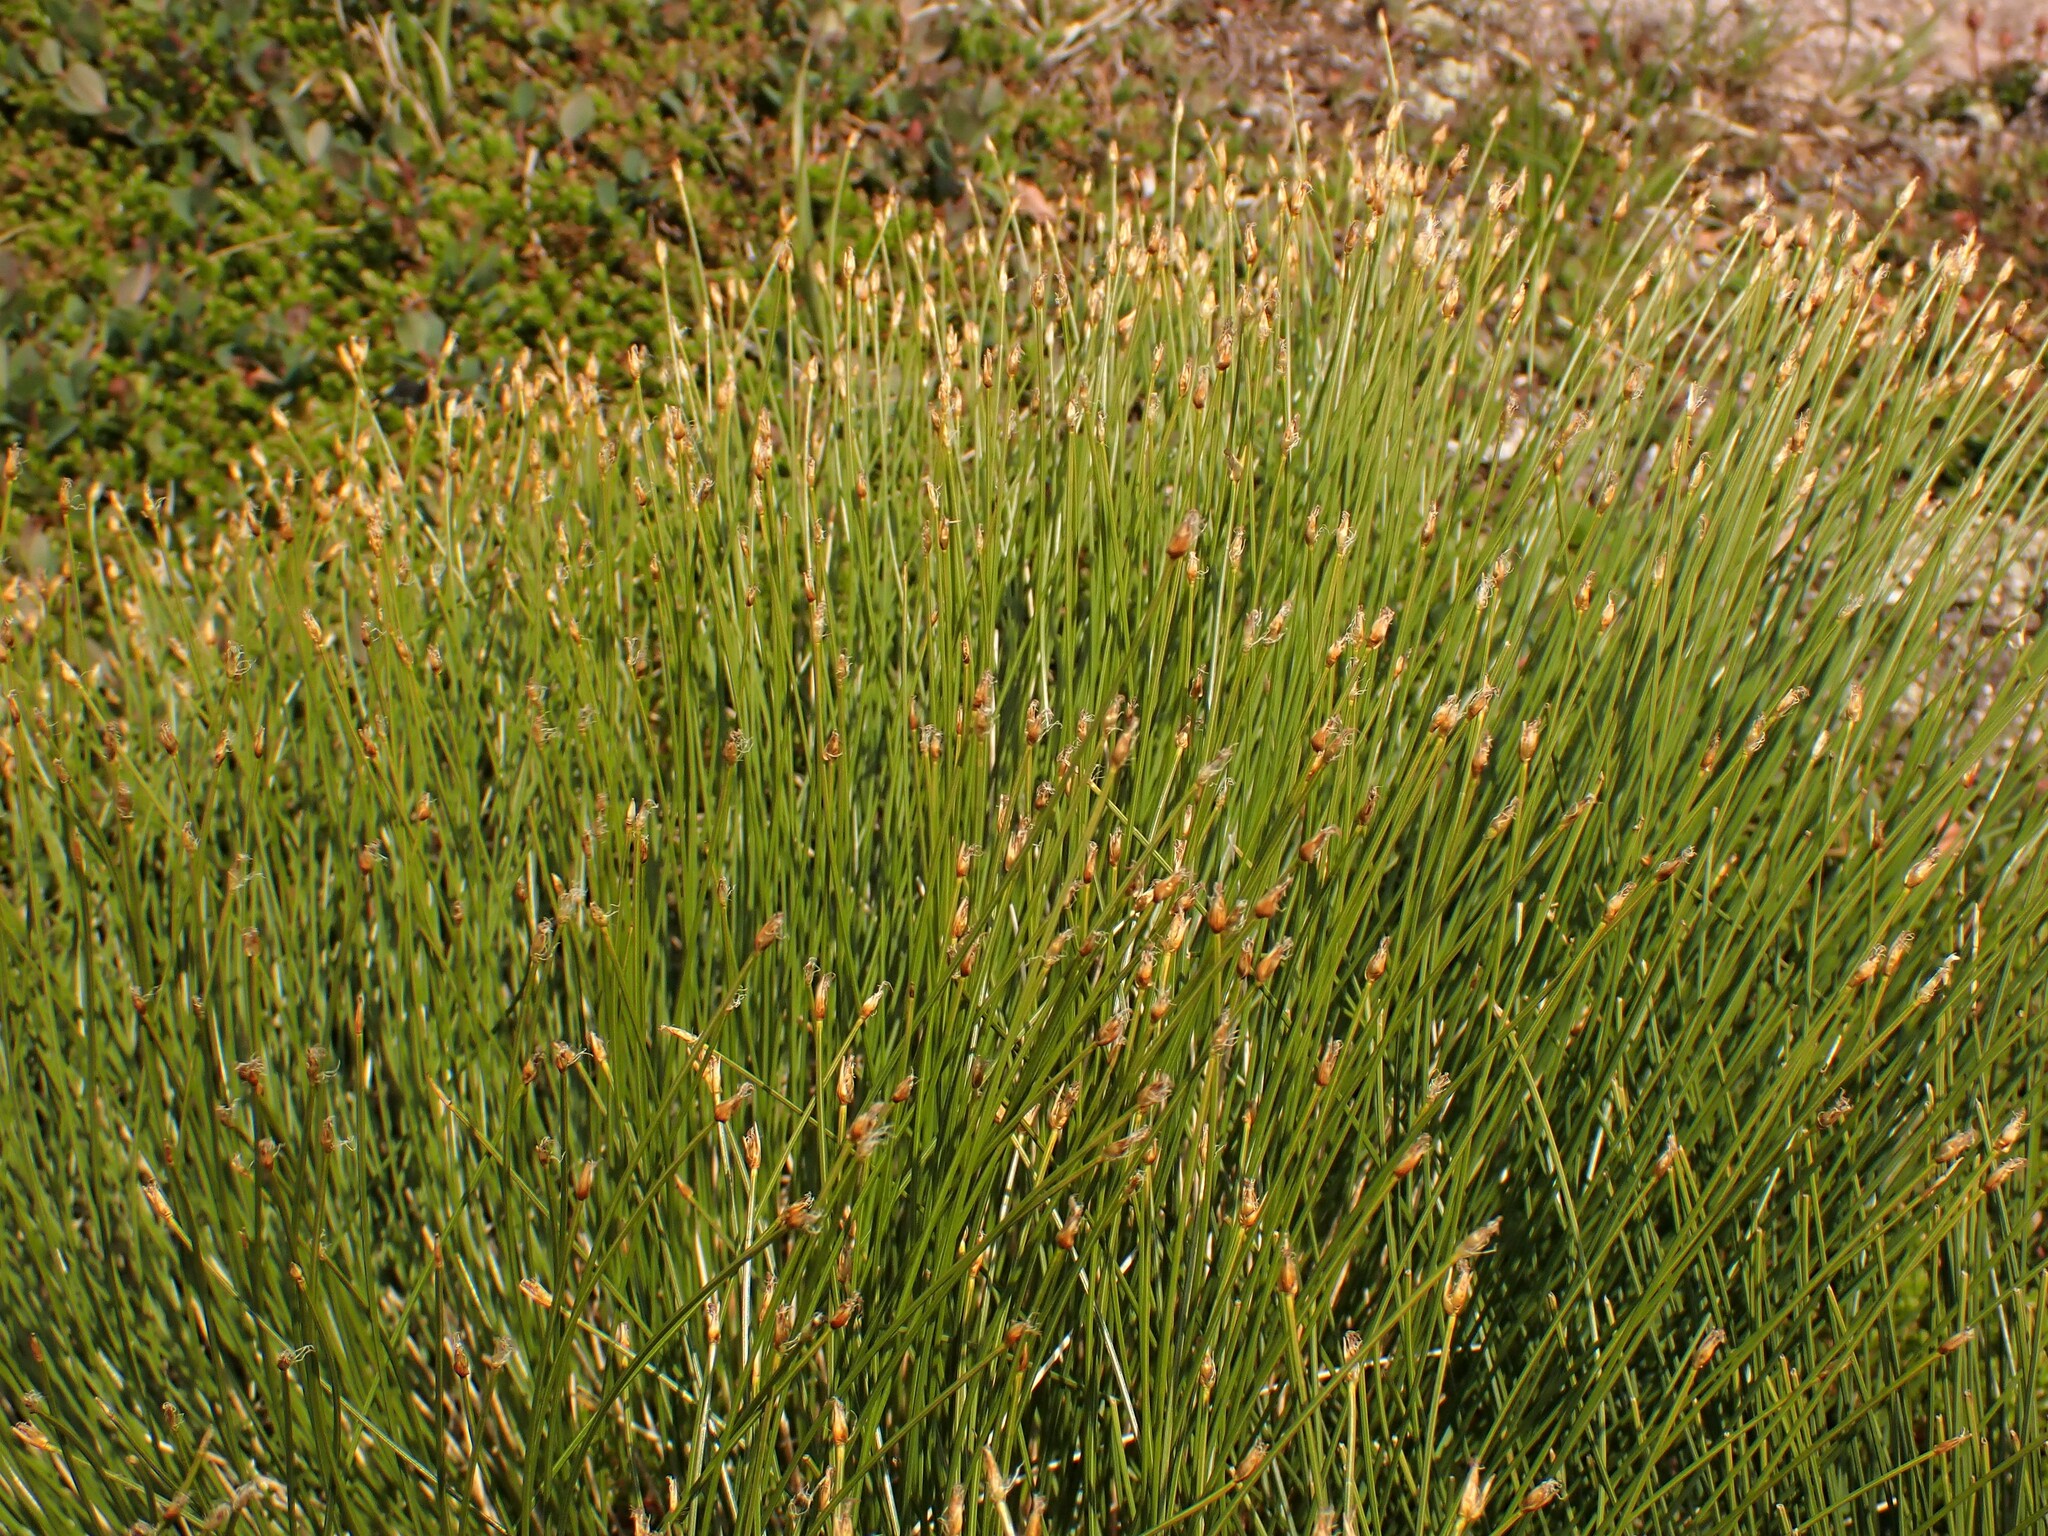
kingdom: Plantae
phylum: Tracheophyta
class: Liliopsida
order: Poales
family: Cyperaceae
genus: Trichophorum
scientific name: Trichophorum cespitosum
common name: Cespitose bulrush
